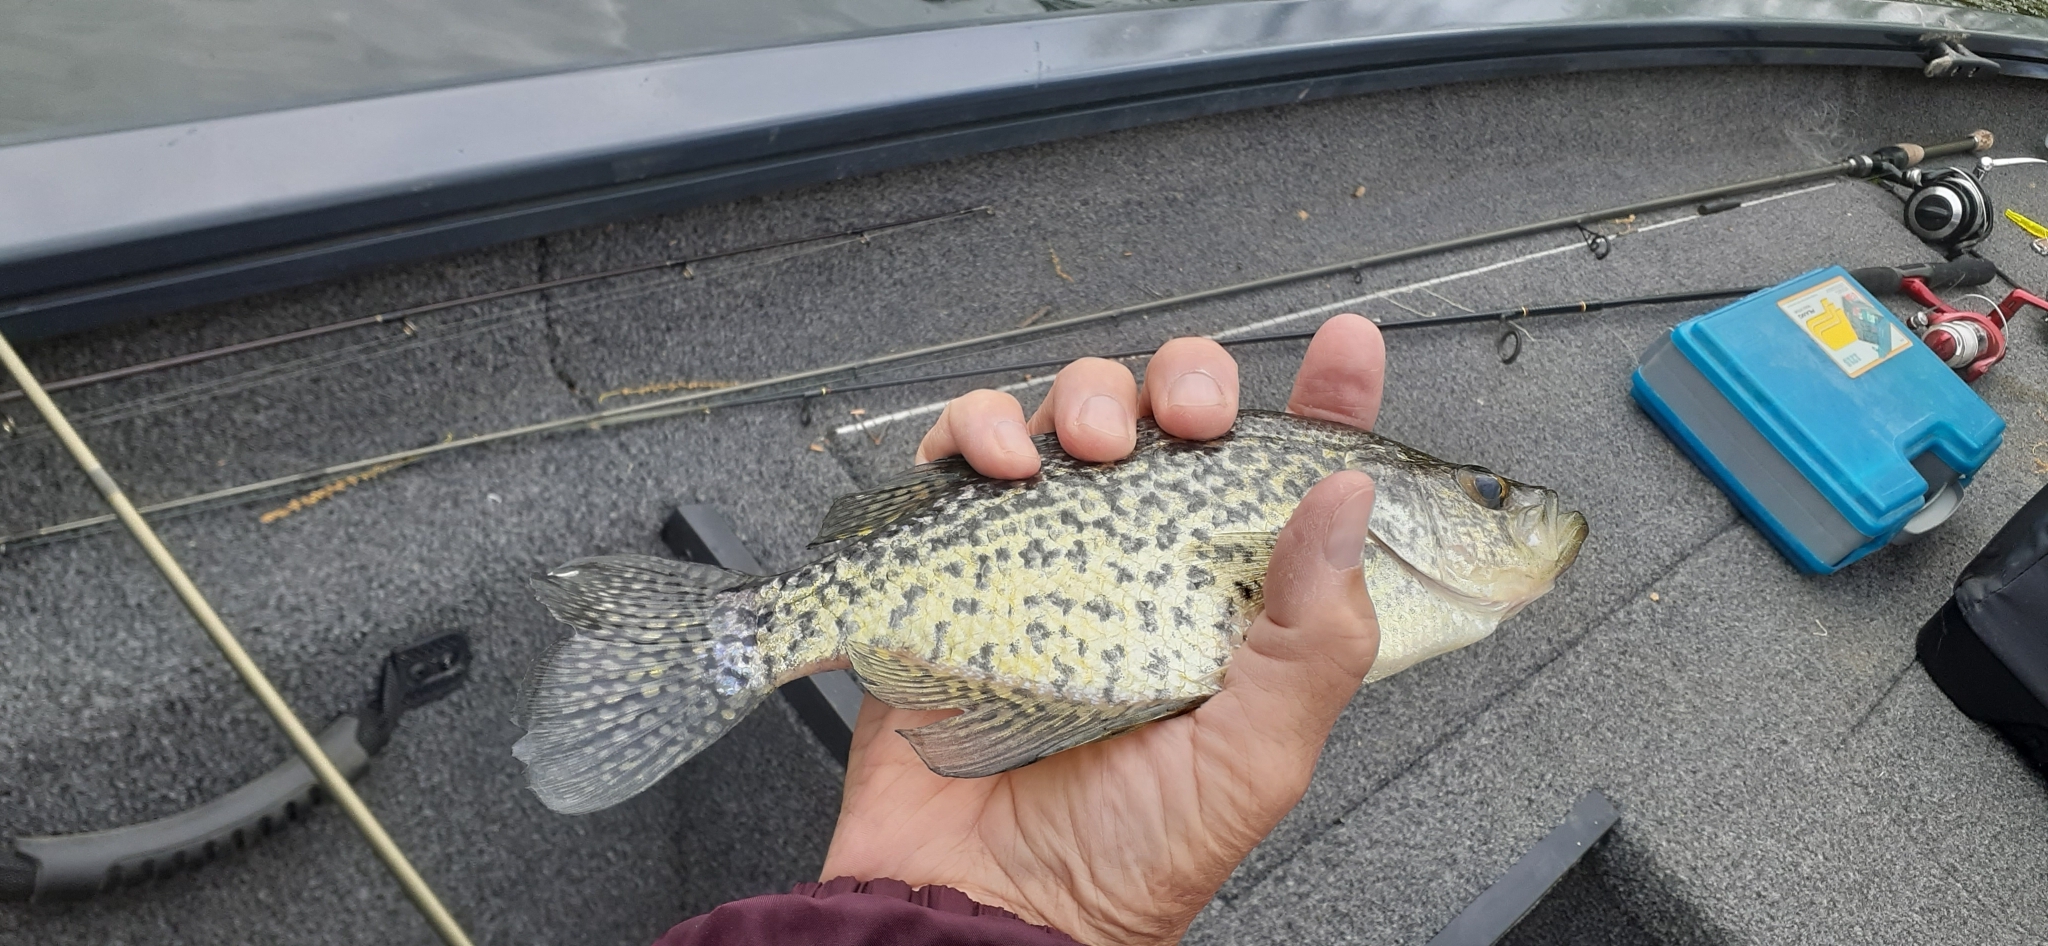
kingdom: Animalia
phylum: Chordata
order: Perciformes
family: Centrarchidae
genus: Pomoxis
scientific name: Pomoxis nigromaculatus
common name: Black crappie
